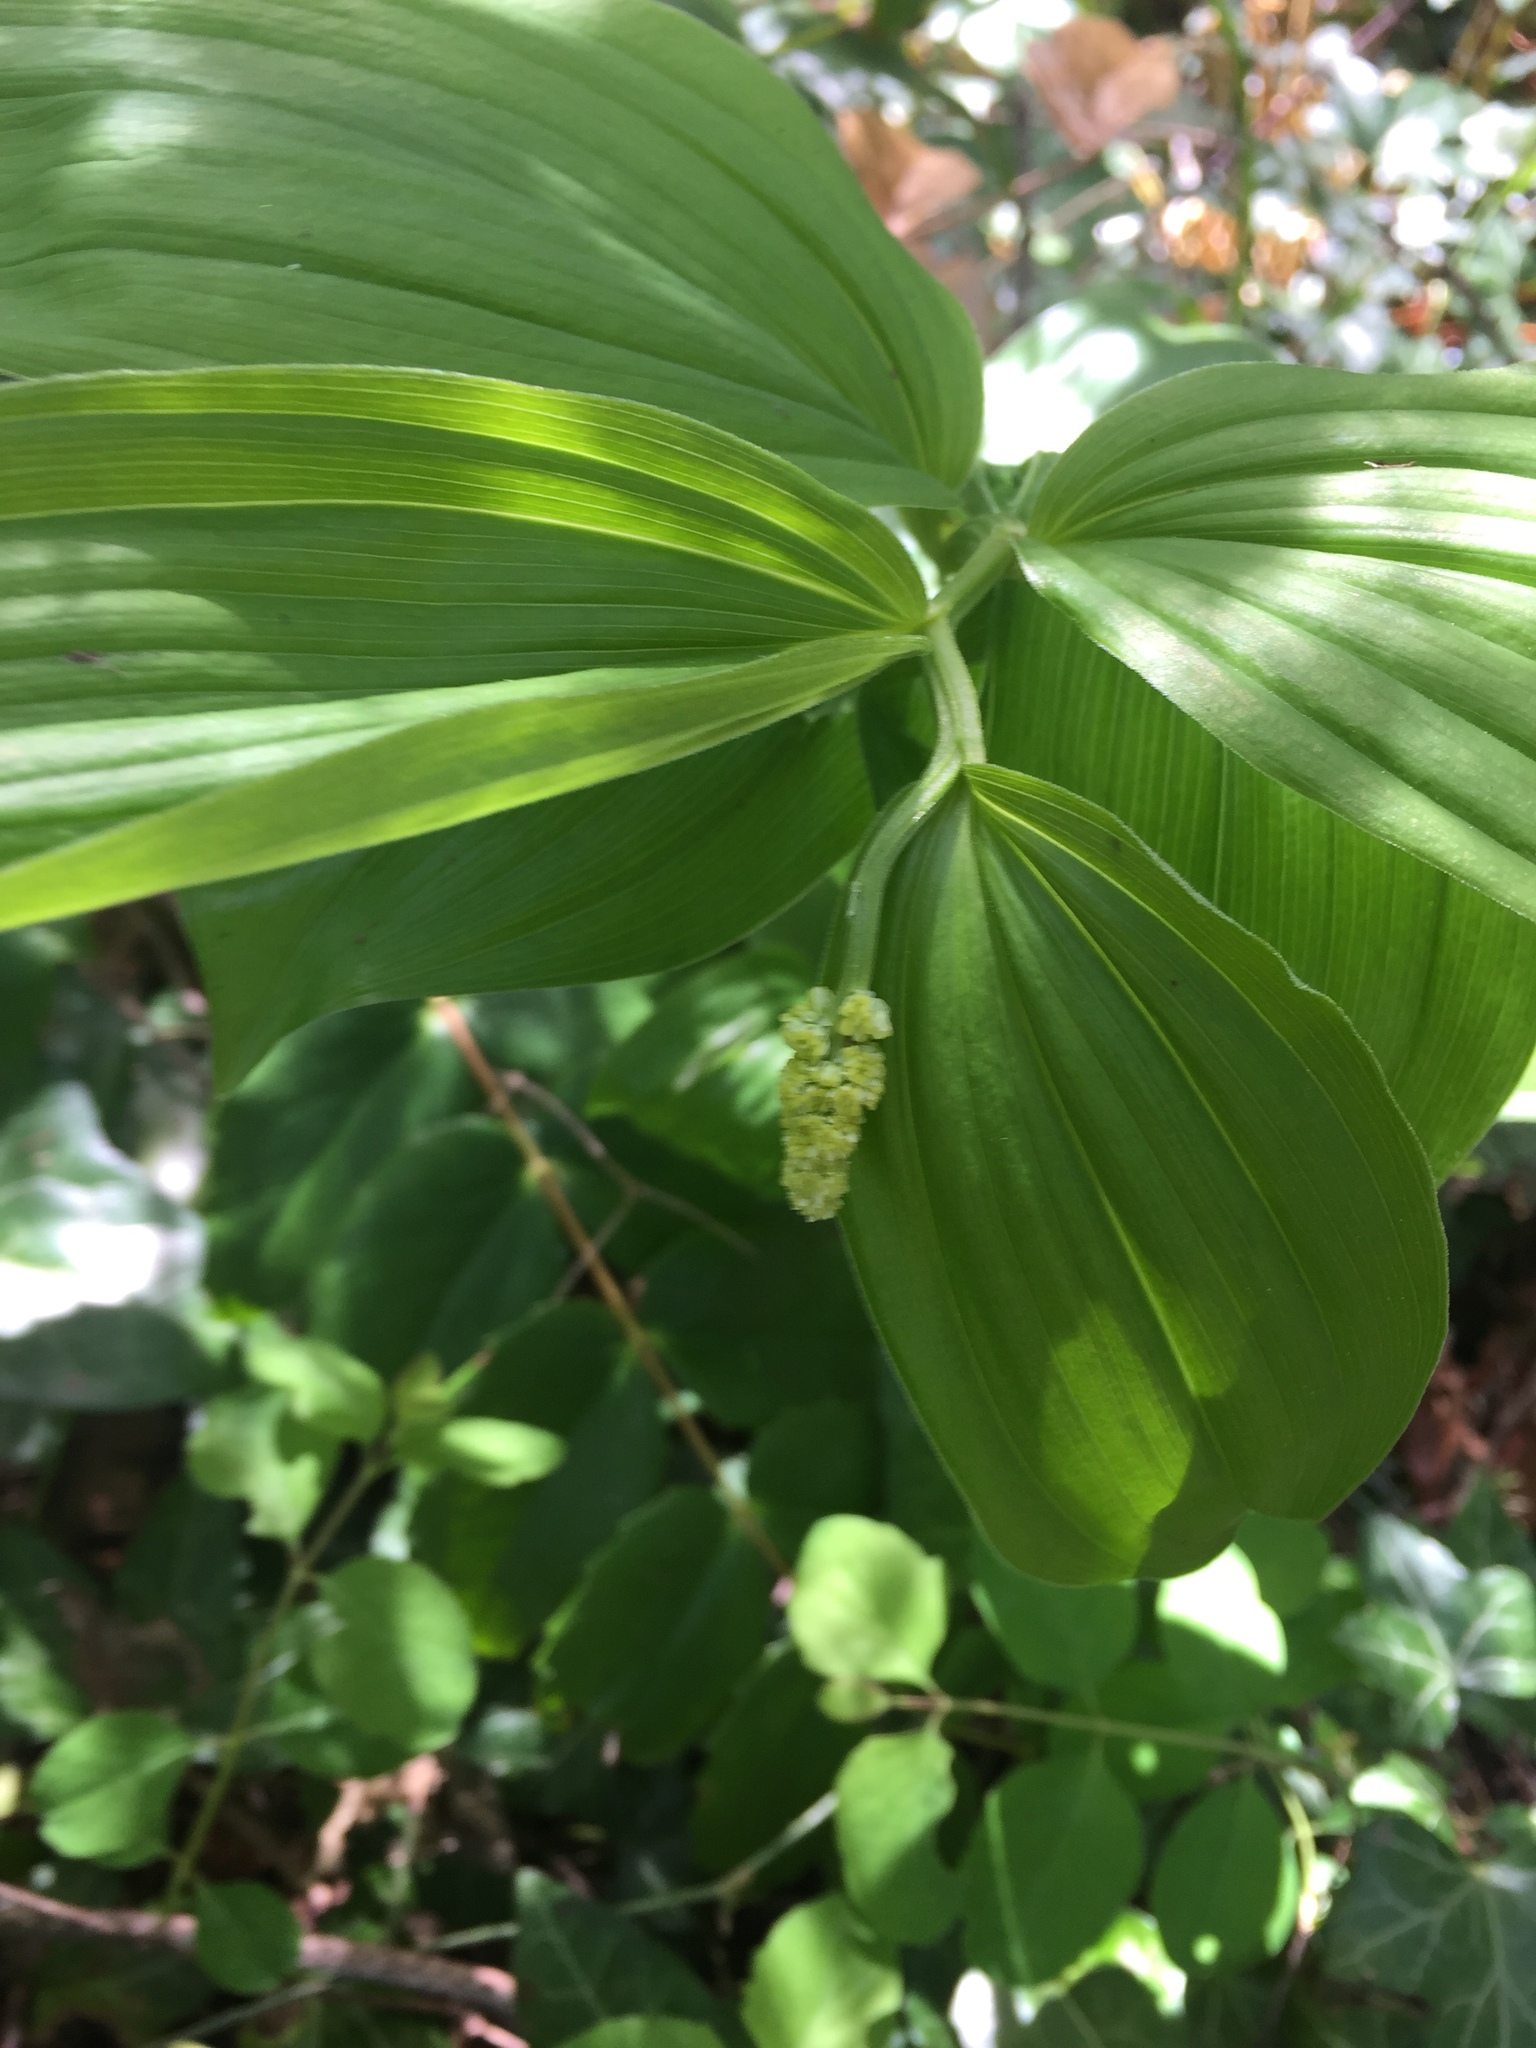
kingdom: Plantae
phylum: Tracheophyta
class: Liliopsida
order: Asparagales
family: Asparagaceae
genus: Maianthemum
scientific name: Maianthemum racemosum
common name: False spikenard
